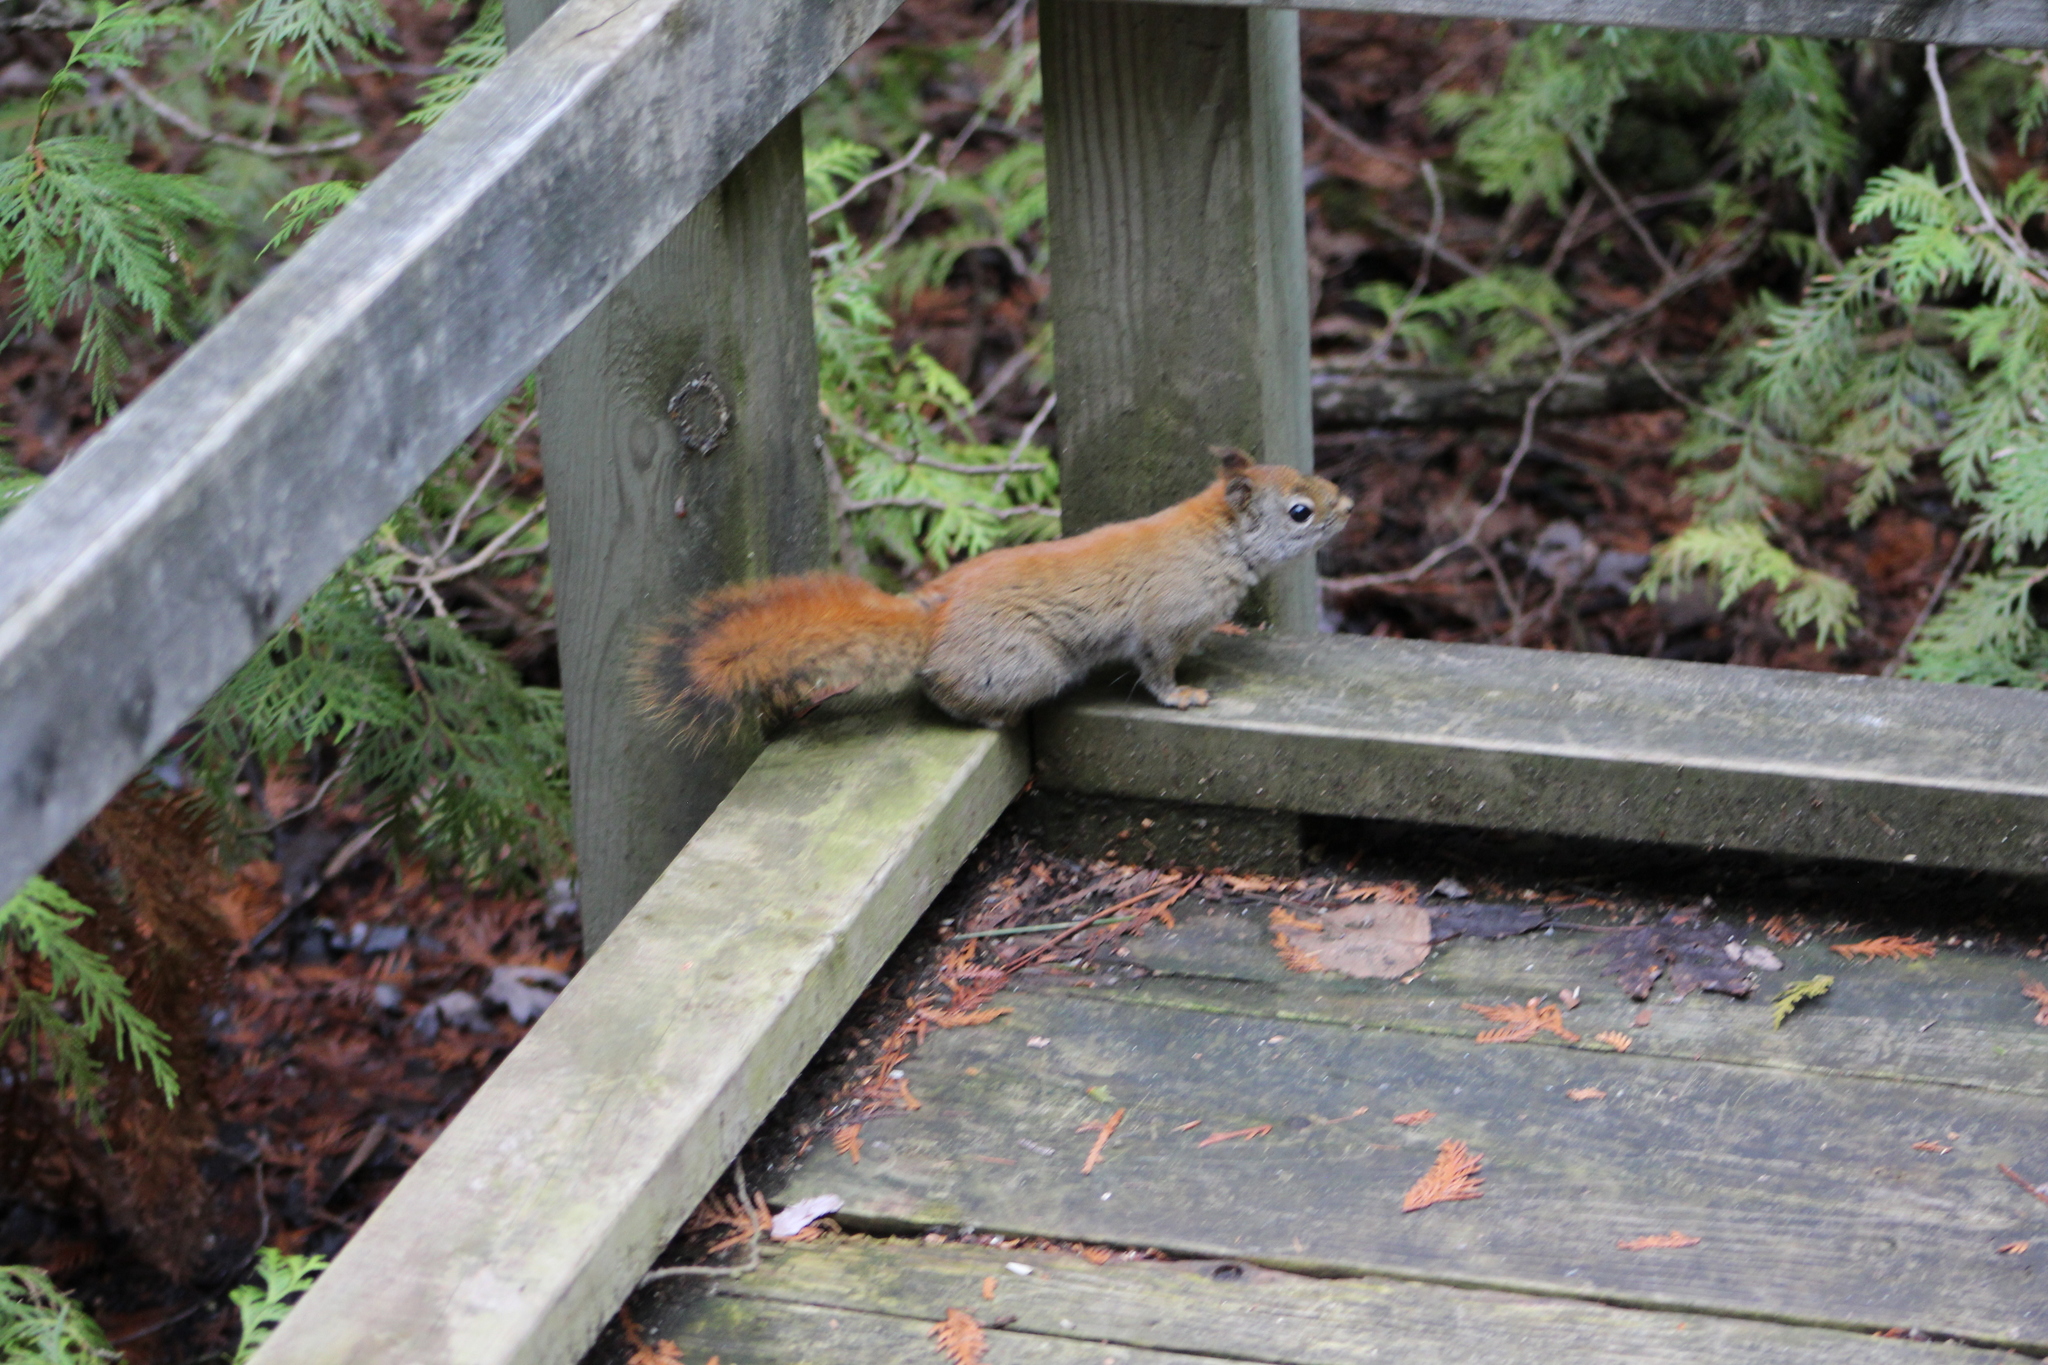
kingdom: Animalia
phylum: Chordata
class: Mammalia
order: Rodentia
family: Sciuridae
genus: Tamiasciurus
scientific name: Tamiasciurus hudsonicus
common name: Red squirrel
